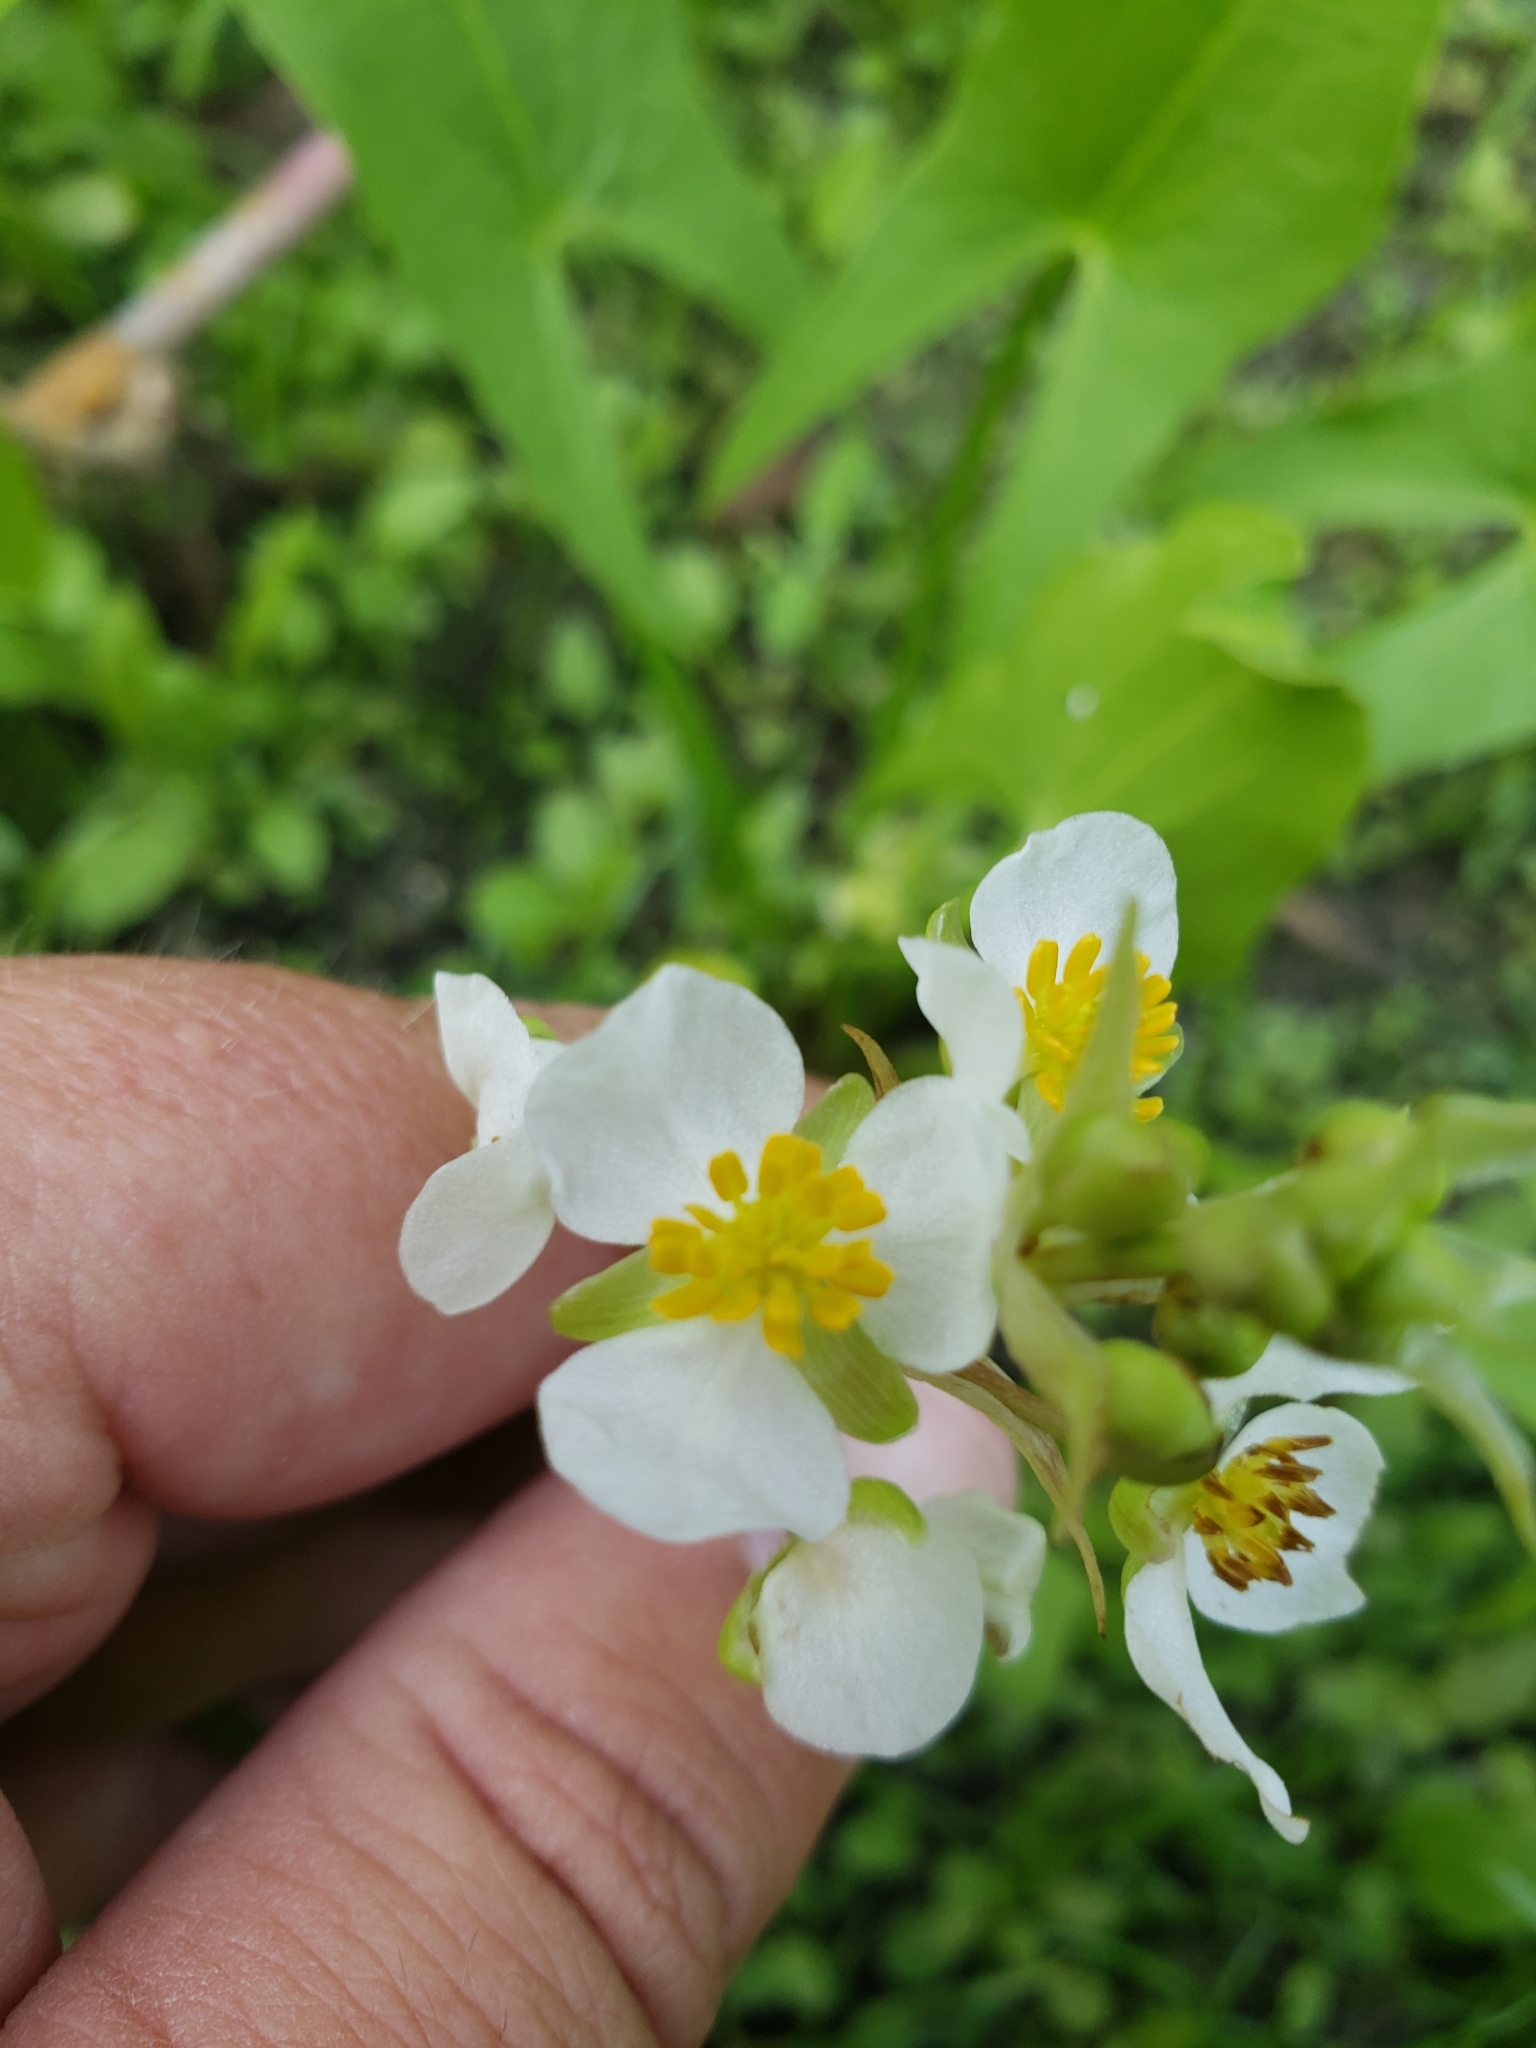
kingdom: Plantae
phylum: Tracheophyta
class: Liliopsida
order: Alismatales
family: Alismataceae
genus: Sagittaria
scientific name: Sagittaria cuneata
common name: Northern arrowhead
